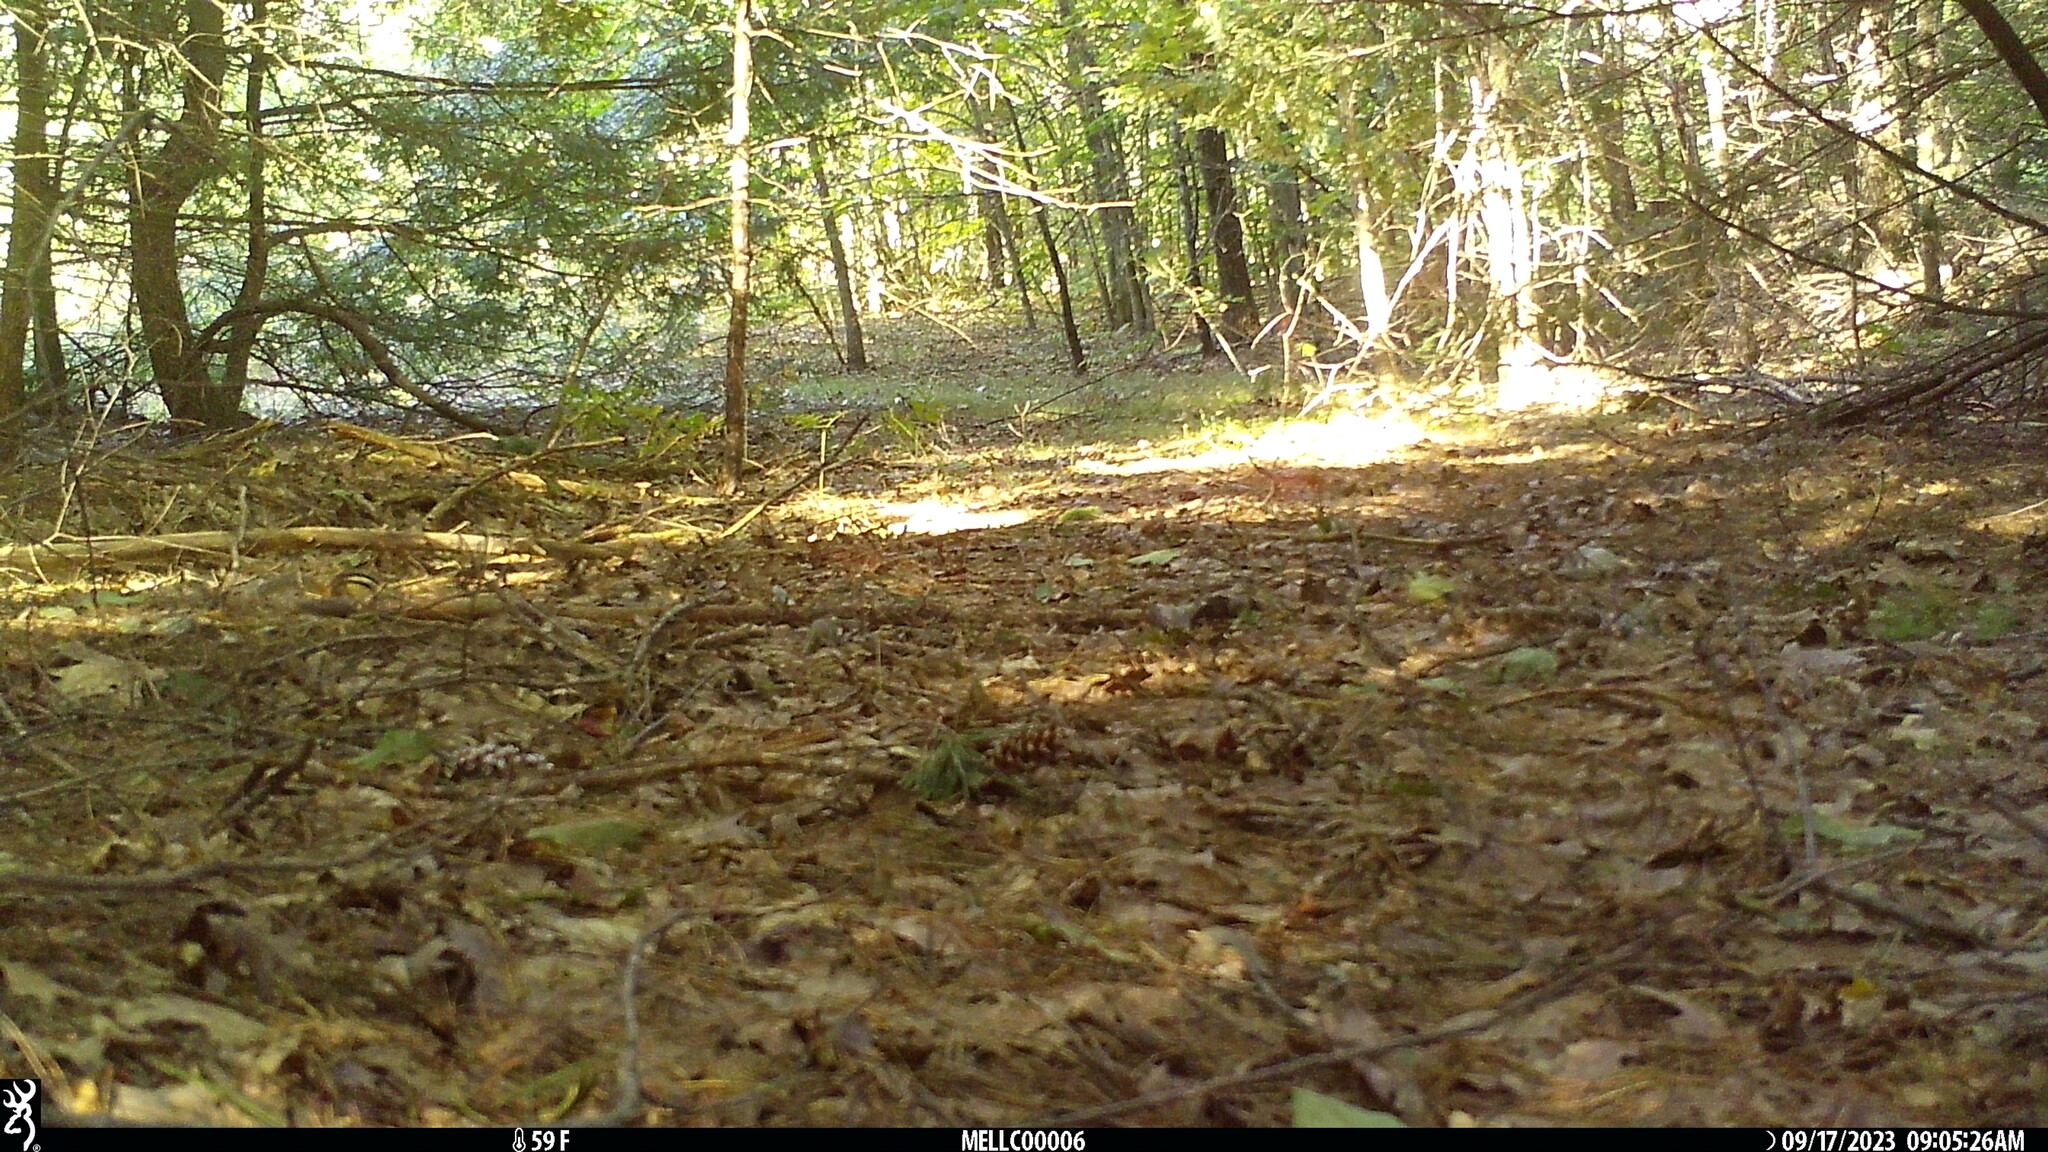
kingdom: Animalia
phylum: Chordata
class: Mammalia
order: Rodentia
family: Sciuridae
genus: Tamias
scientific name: Tamias striatus
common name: Eastern chipmunk
